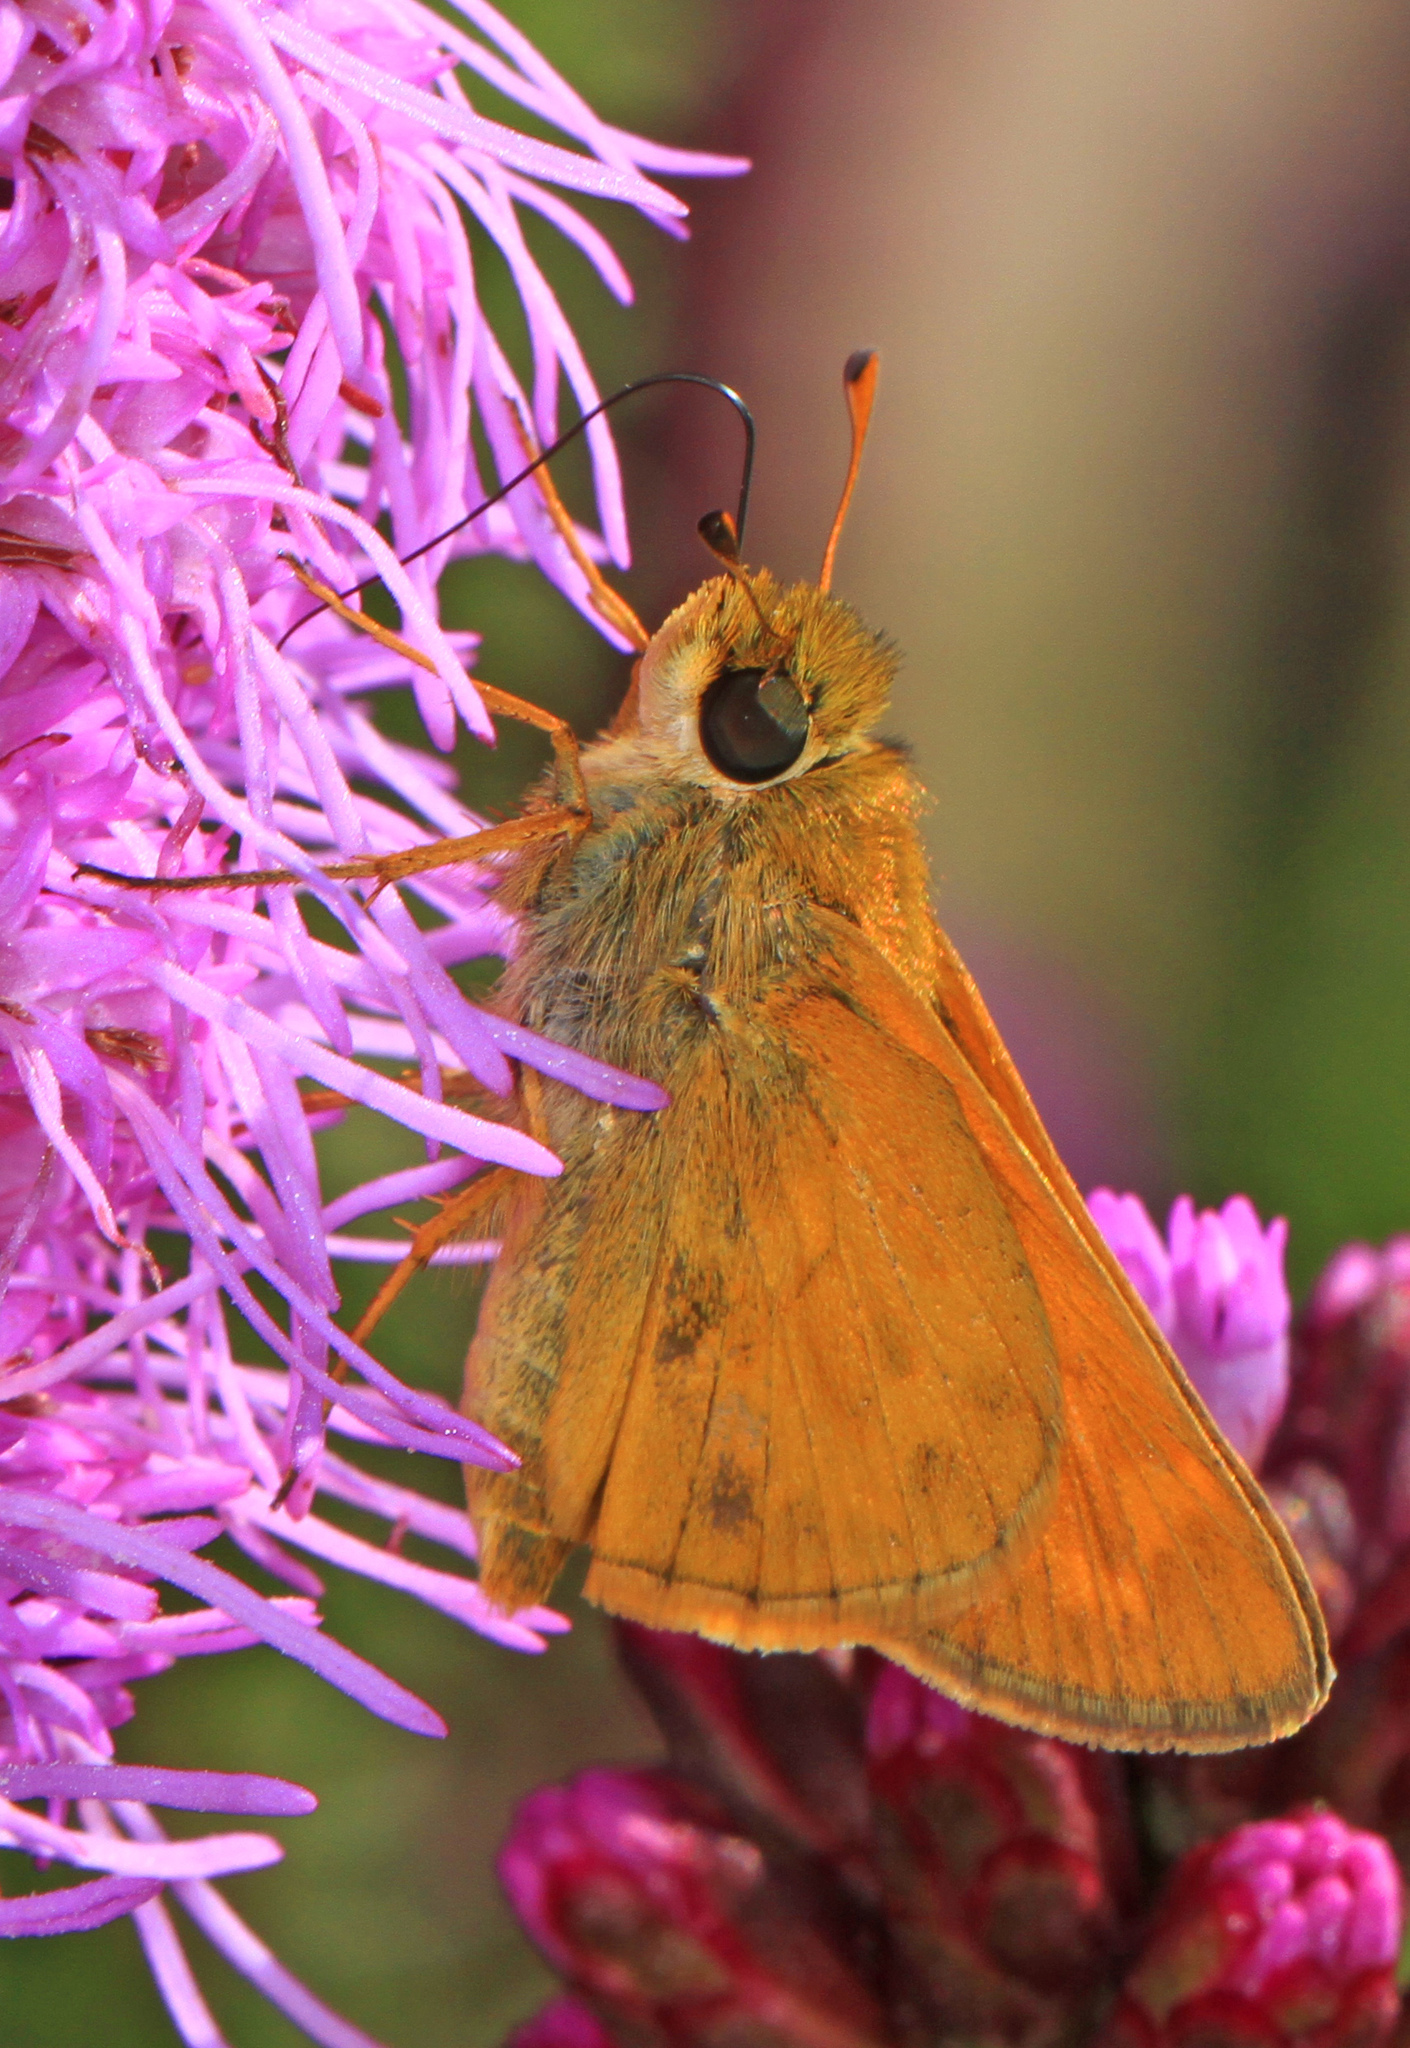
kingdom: Animalia
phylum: Arthropoda
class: Insecta
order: Lepidoptera
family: Hesperiidae
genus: Atalopedes
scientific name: Atalopedes
